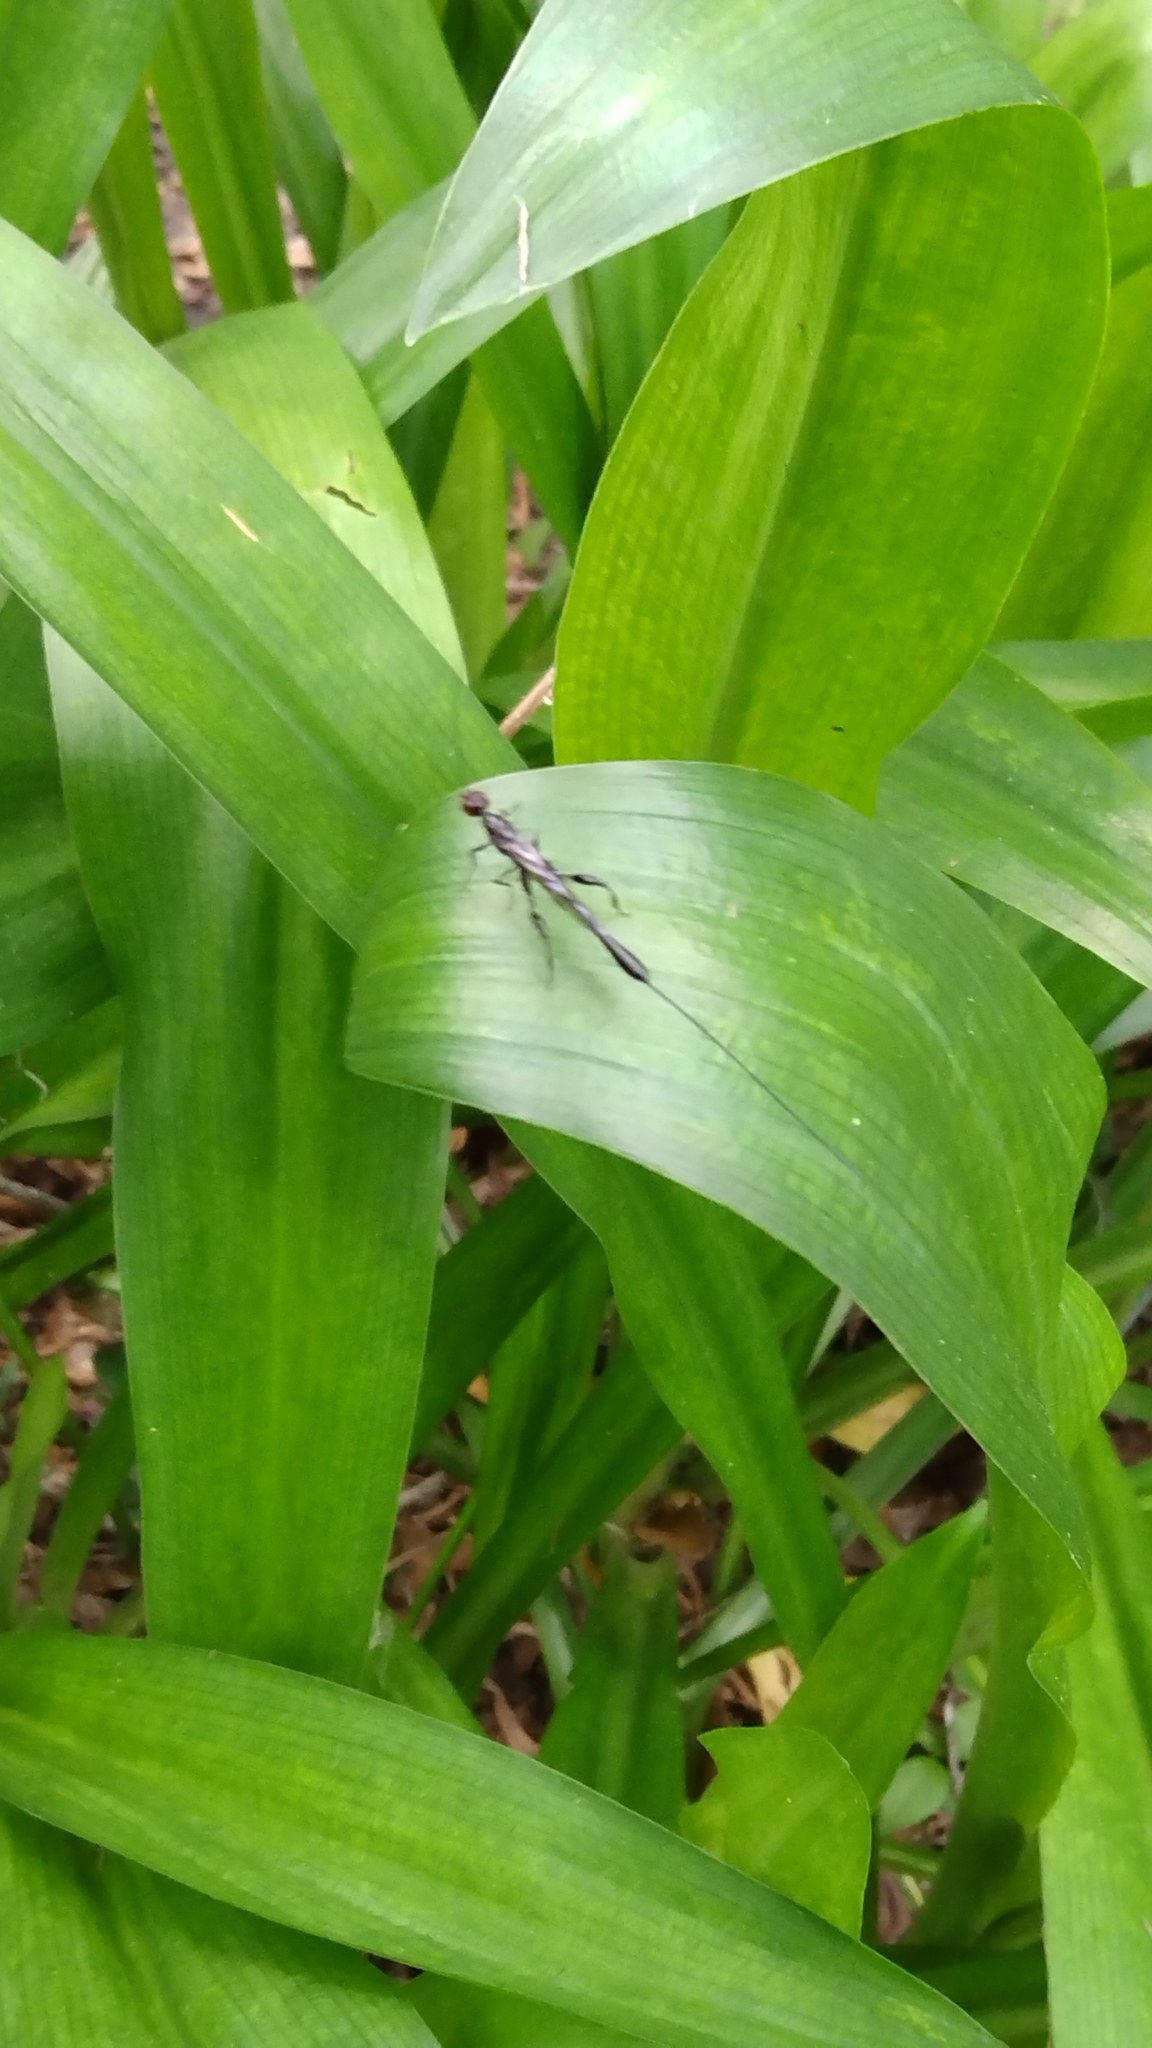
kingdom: Animalia
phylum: Arthropoda
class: Insecta
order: Hymenoptera
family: Stephanidae
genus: Megischus
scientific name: Megischus
